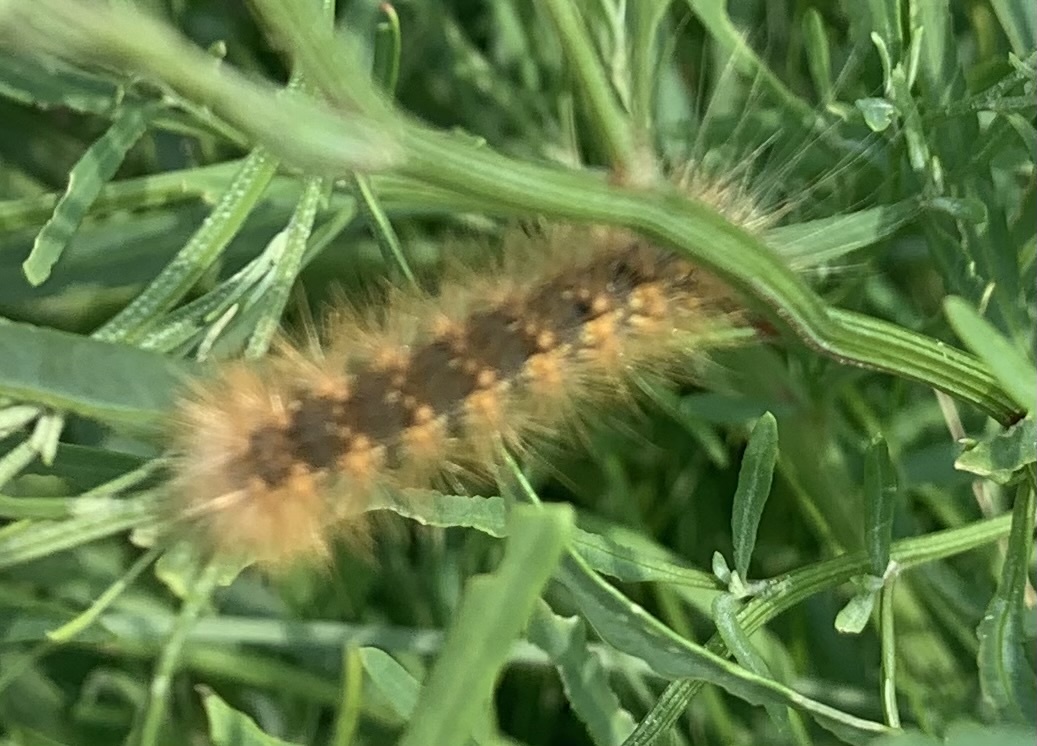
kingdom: Animalia
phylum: Arthropoda
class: Insecta
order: Lepidoptera
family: Erebidae
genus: Estigmene
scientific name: Estigmene acrea
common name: Salt marsh moth
